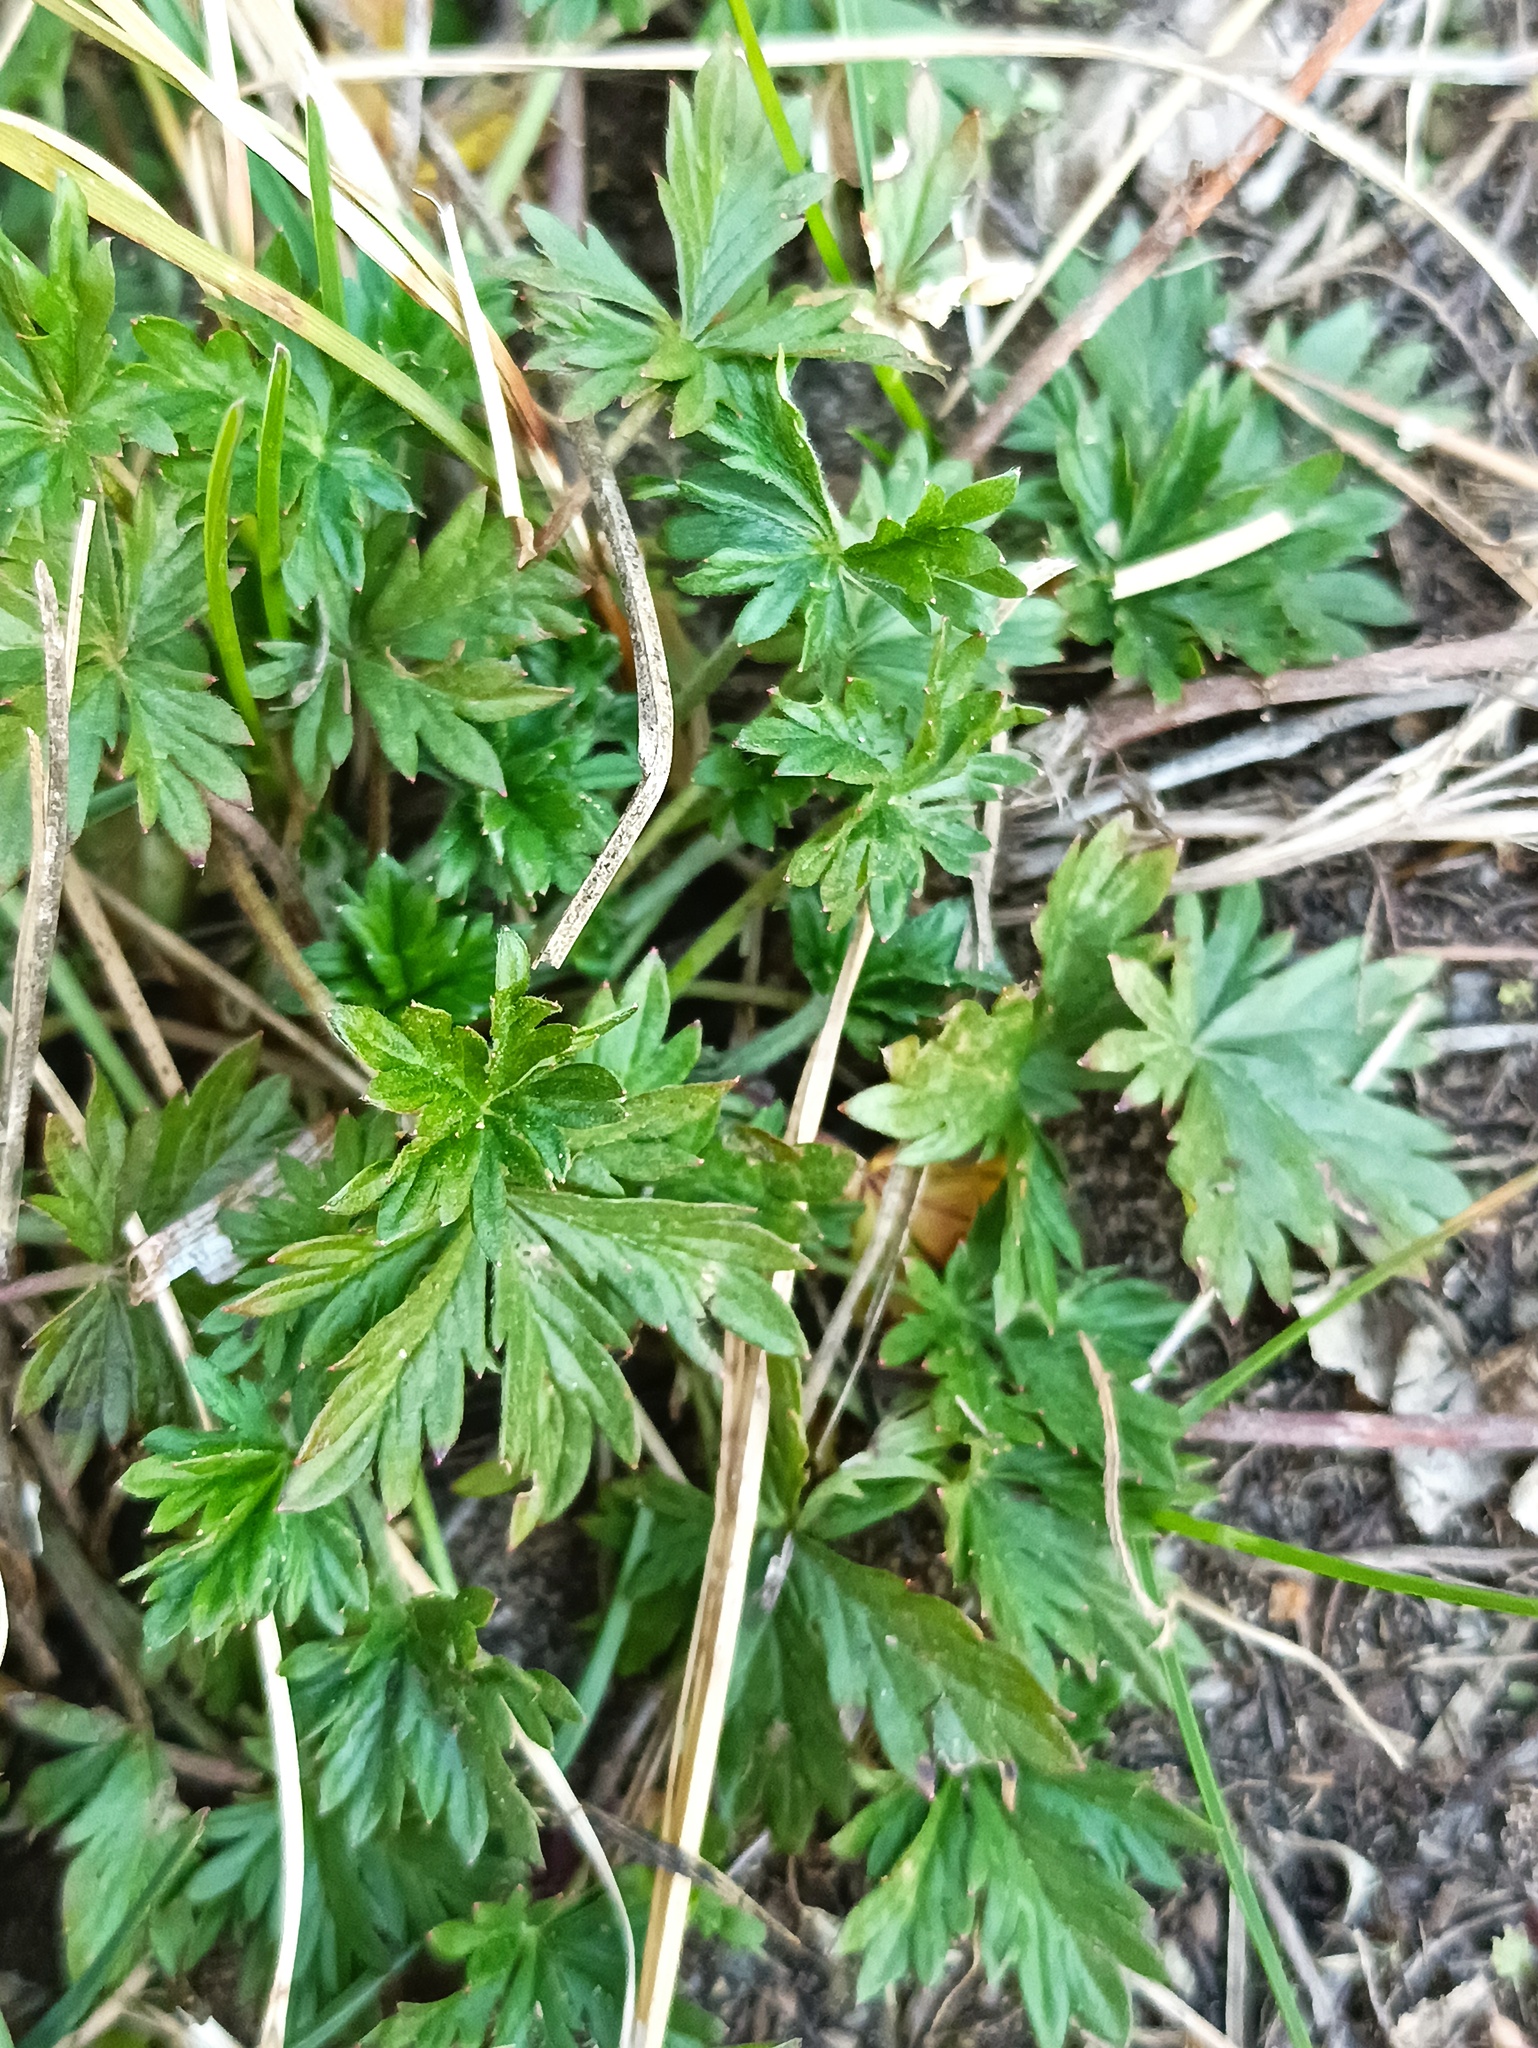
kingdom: Plantae
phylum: Tracheophyta
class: Magnoliopsida
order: Rosales
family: Rosaceae
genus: Potentilla
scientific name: Potentilla argentea
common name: Hoary cinquefoil
